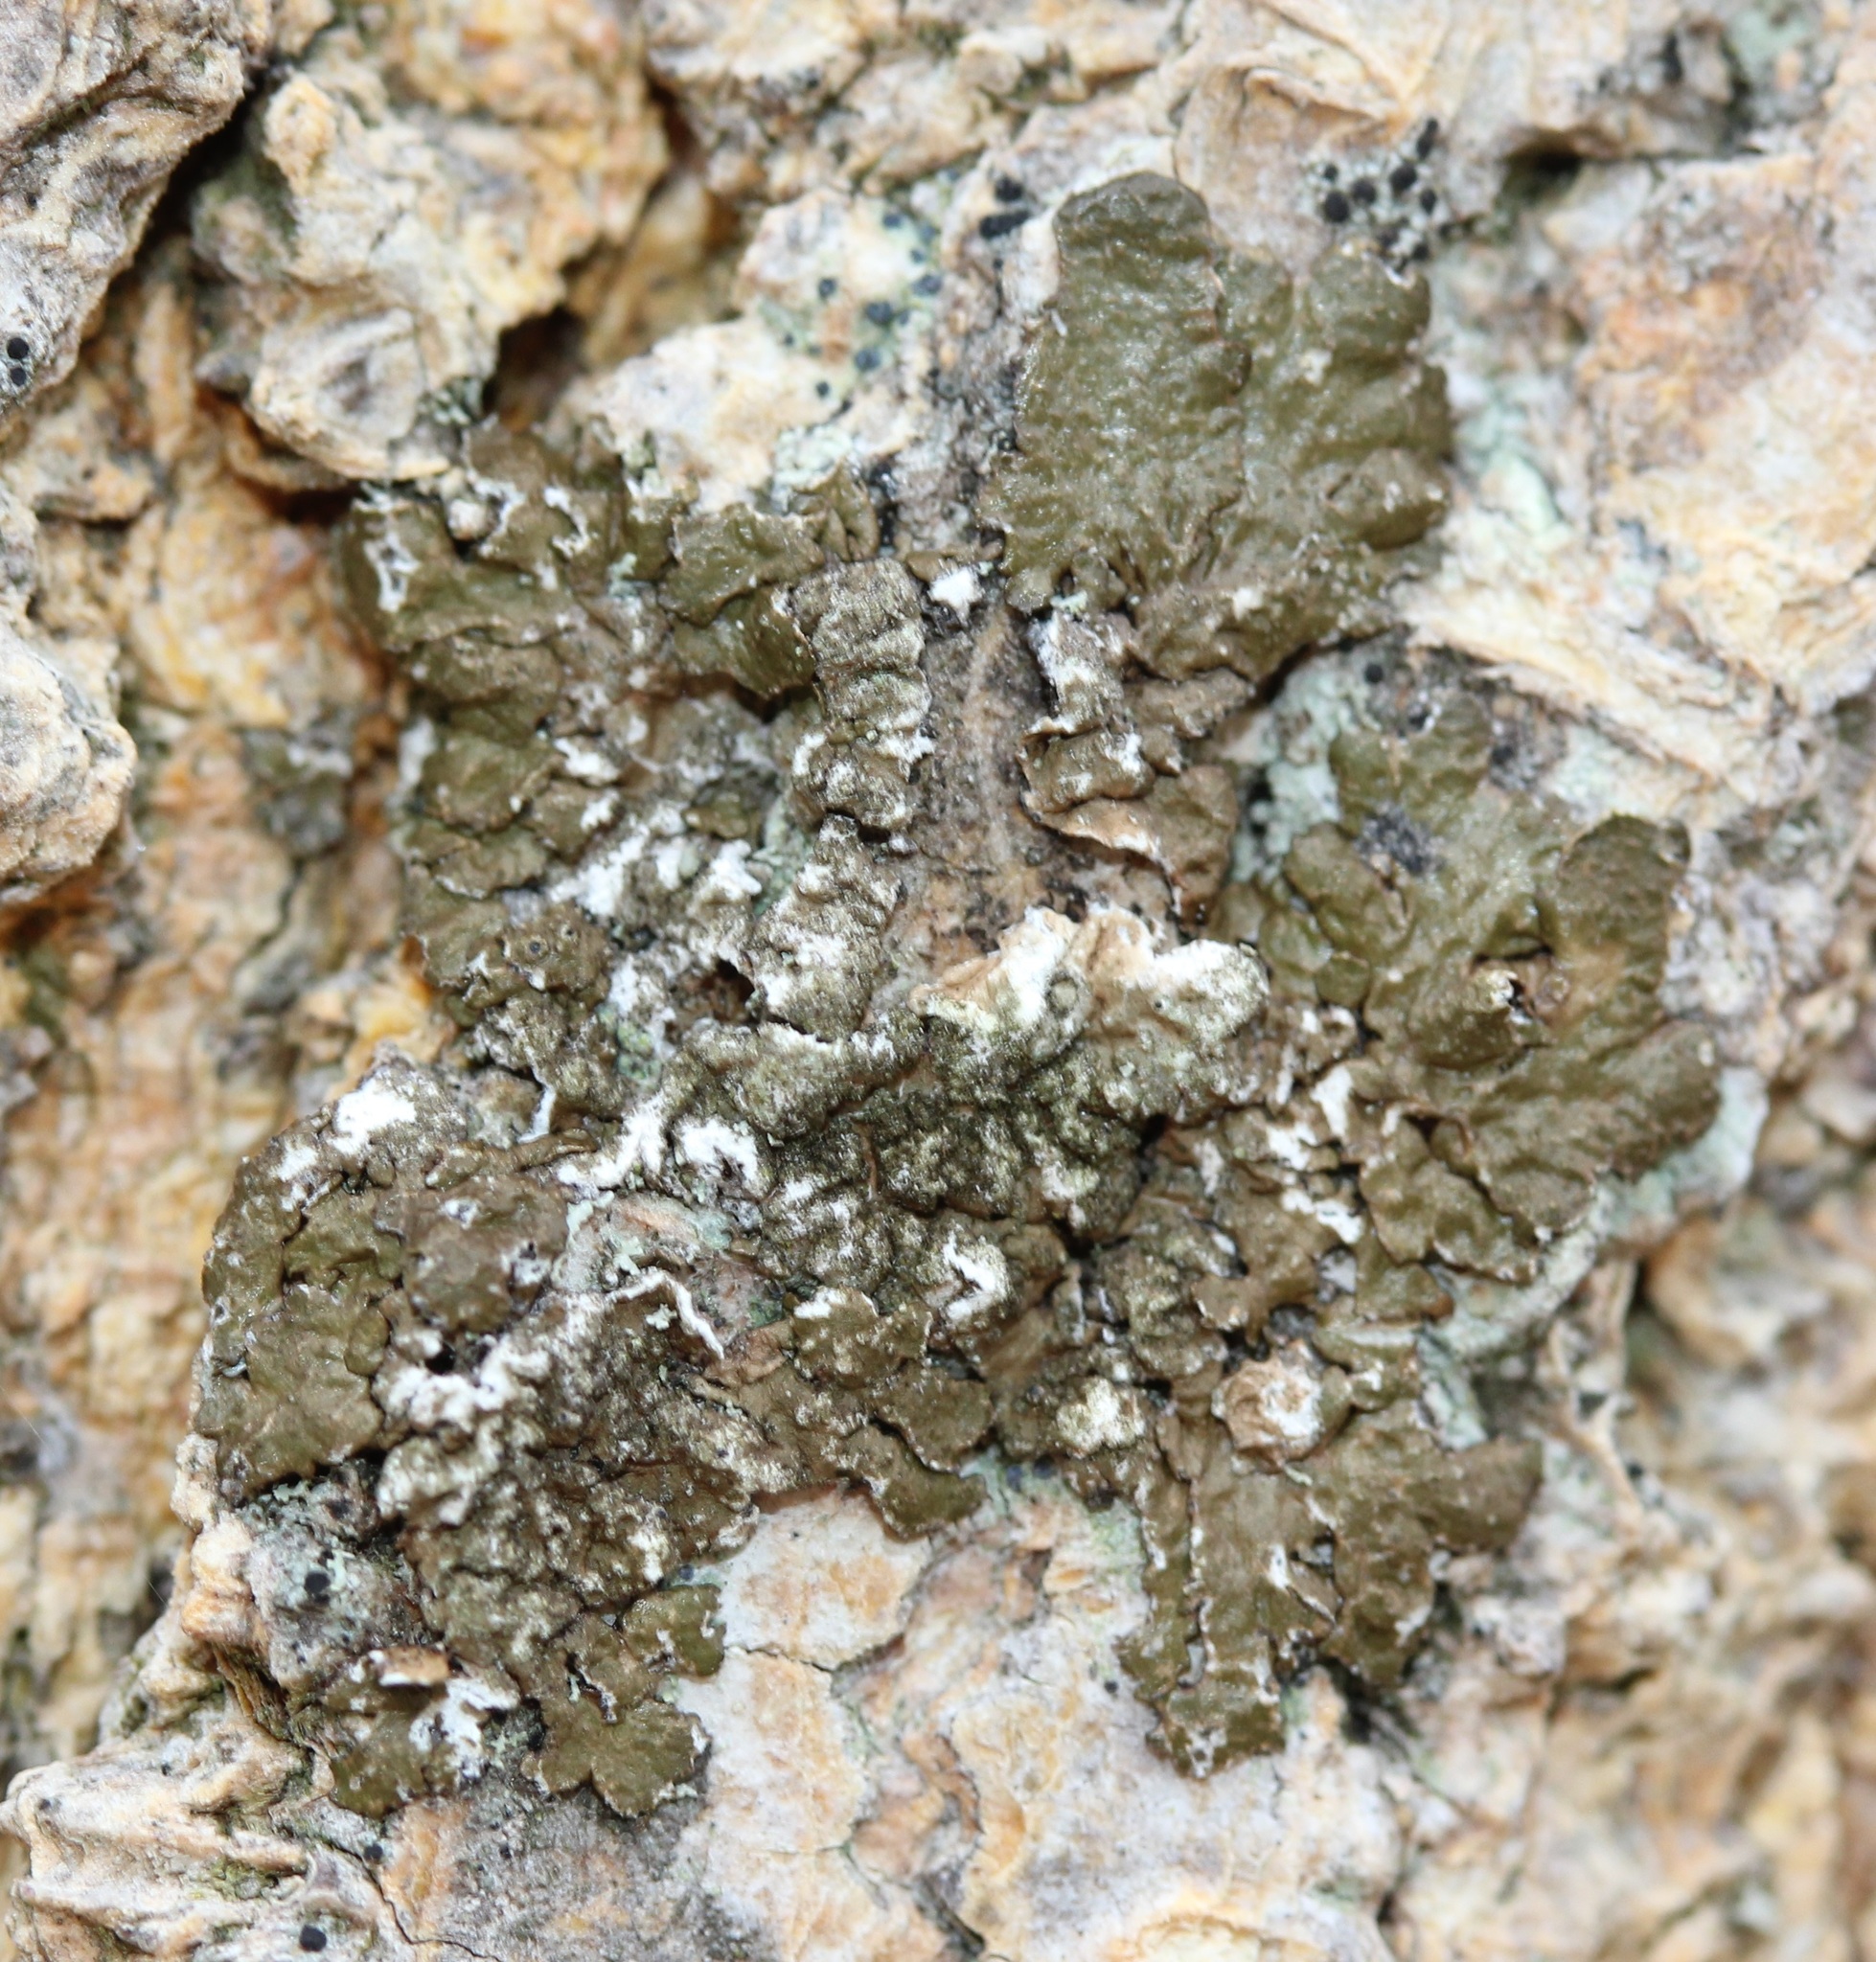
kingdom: Fungi
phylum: Ascomycota
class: Lecanoromycetes
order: Lecanorales
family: Parmeliaceae
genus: Melanelixia
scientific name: Melanelixia subaurifera
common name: Abraded camouflage lichen
